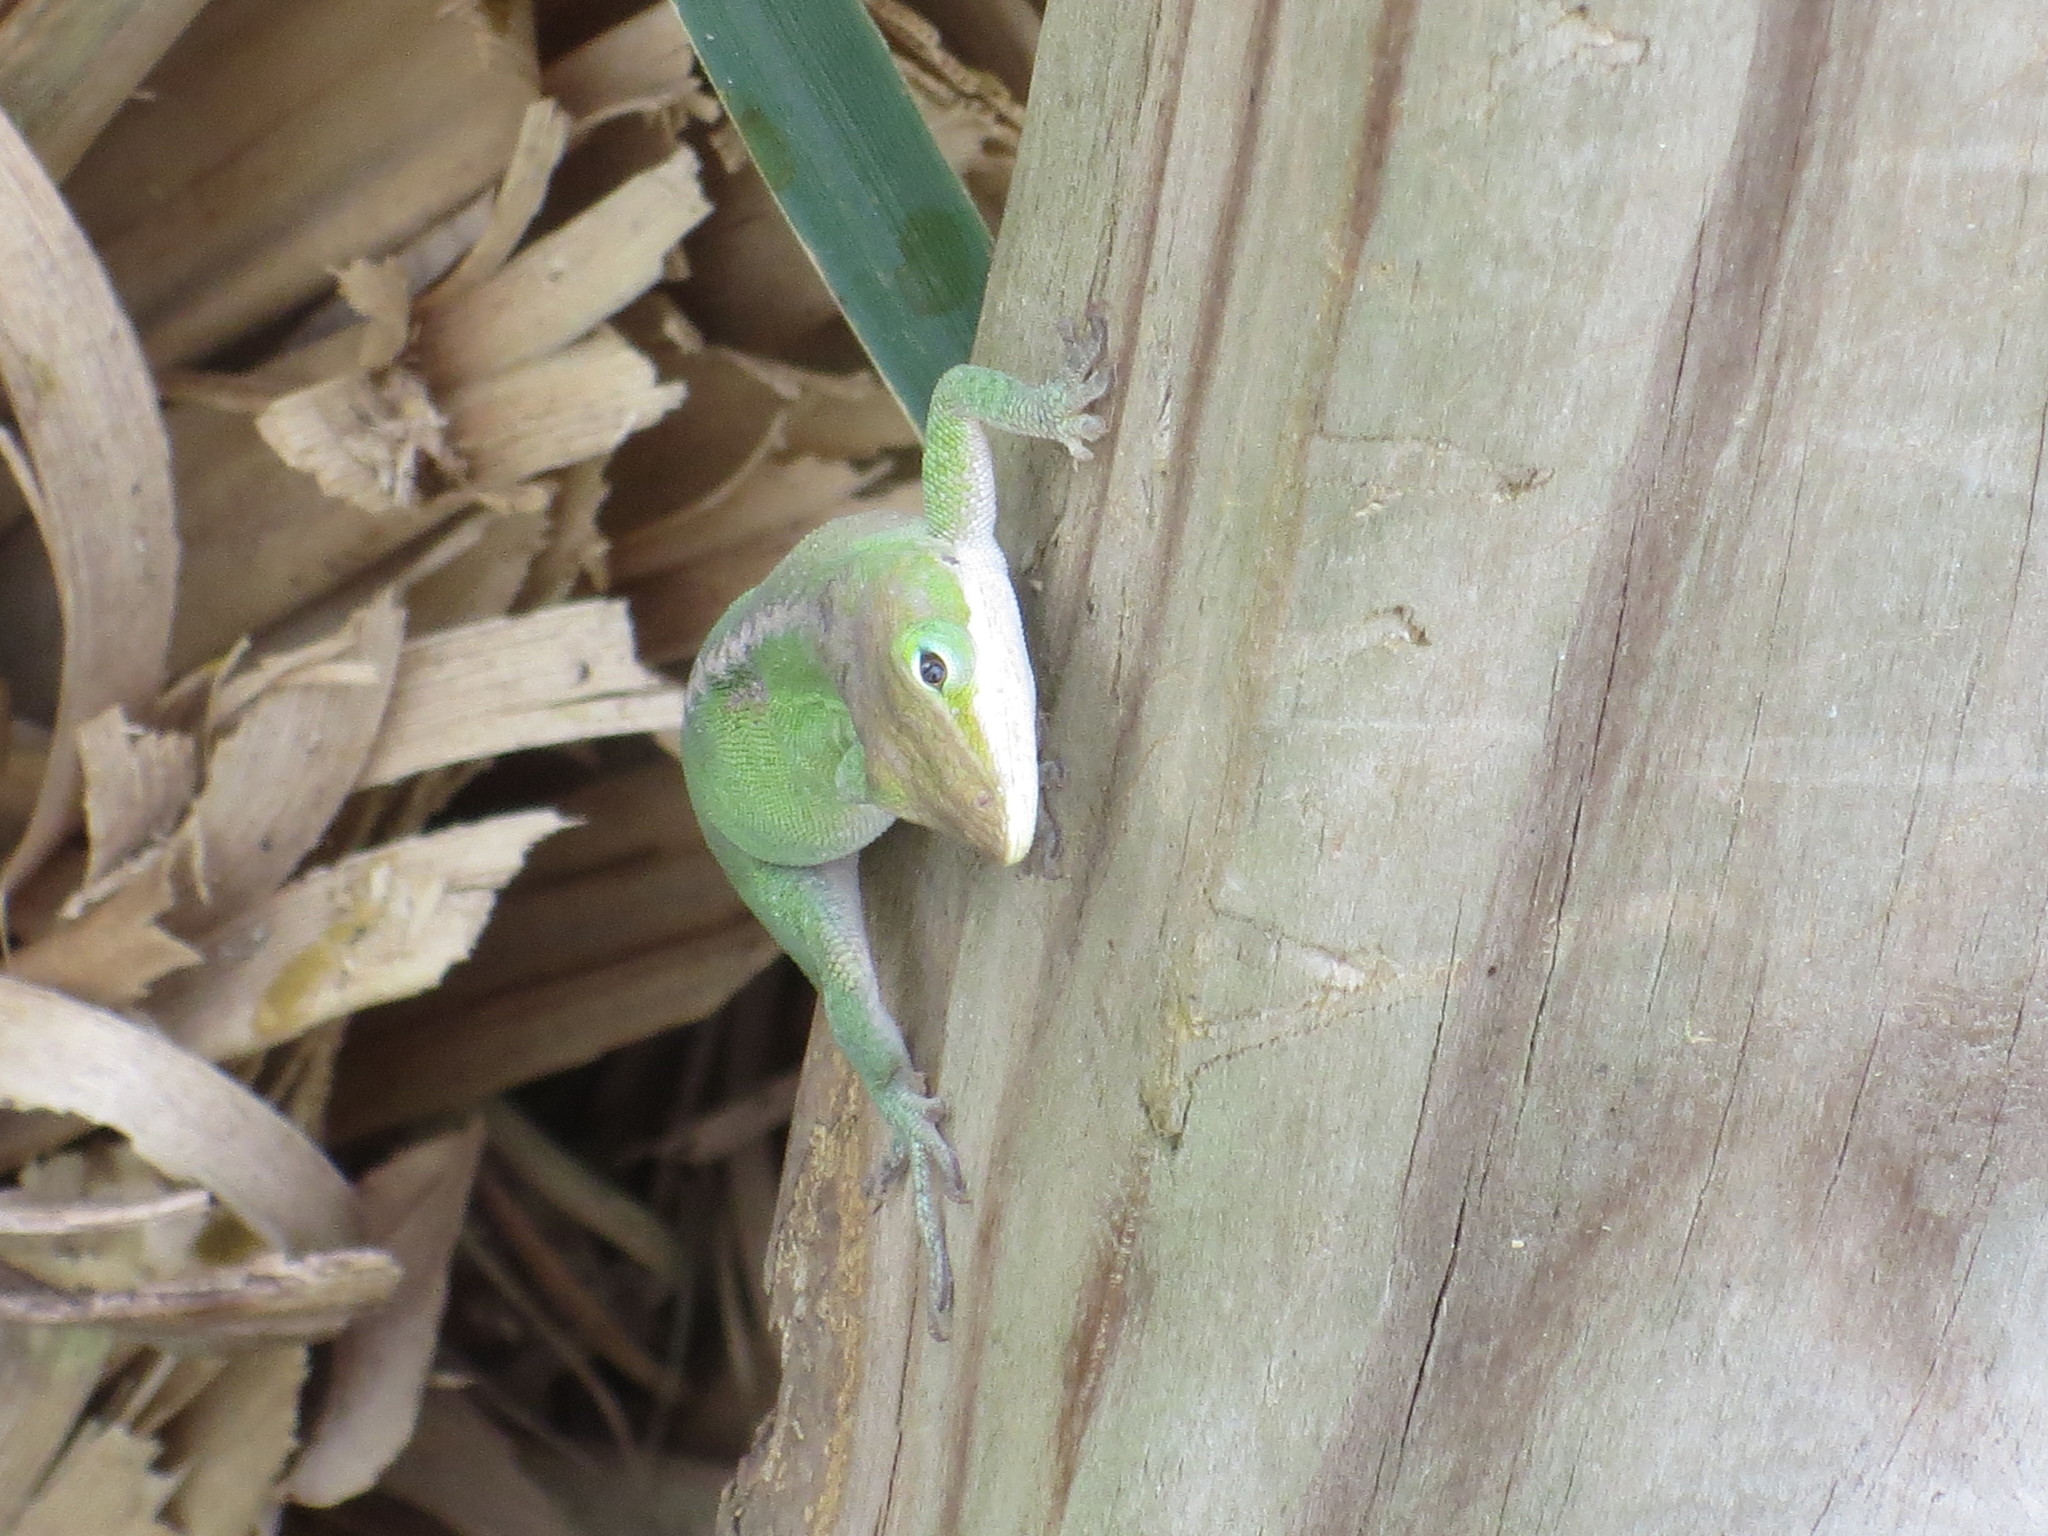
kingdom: Animalia
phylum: Chordata
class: Squamata
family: Dactyloidae
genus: Anolis
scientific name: Anolis carolinensis
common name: Green anole
